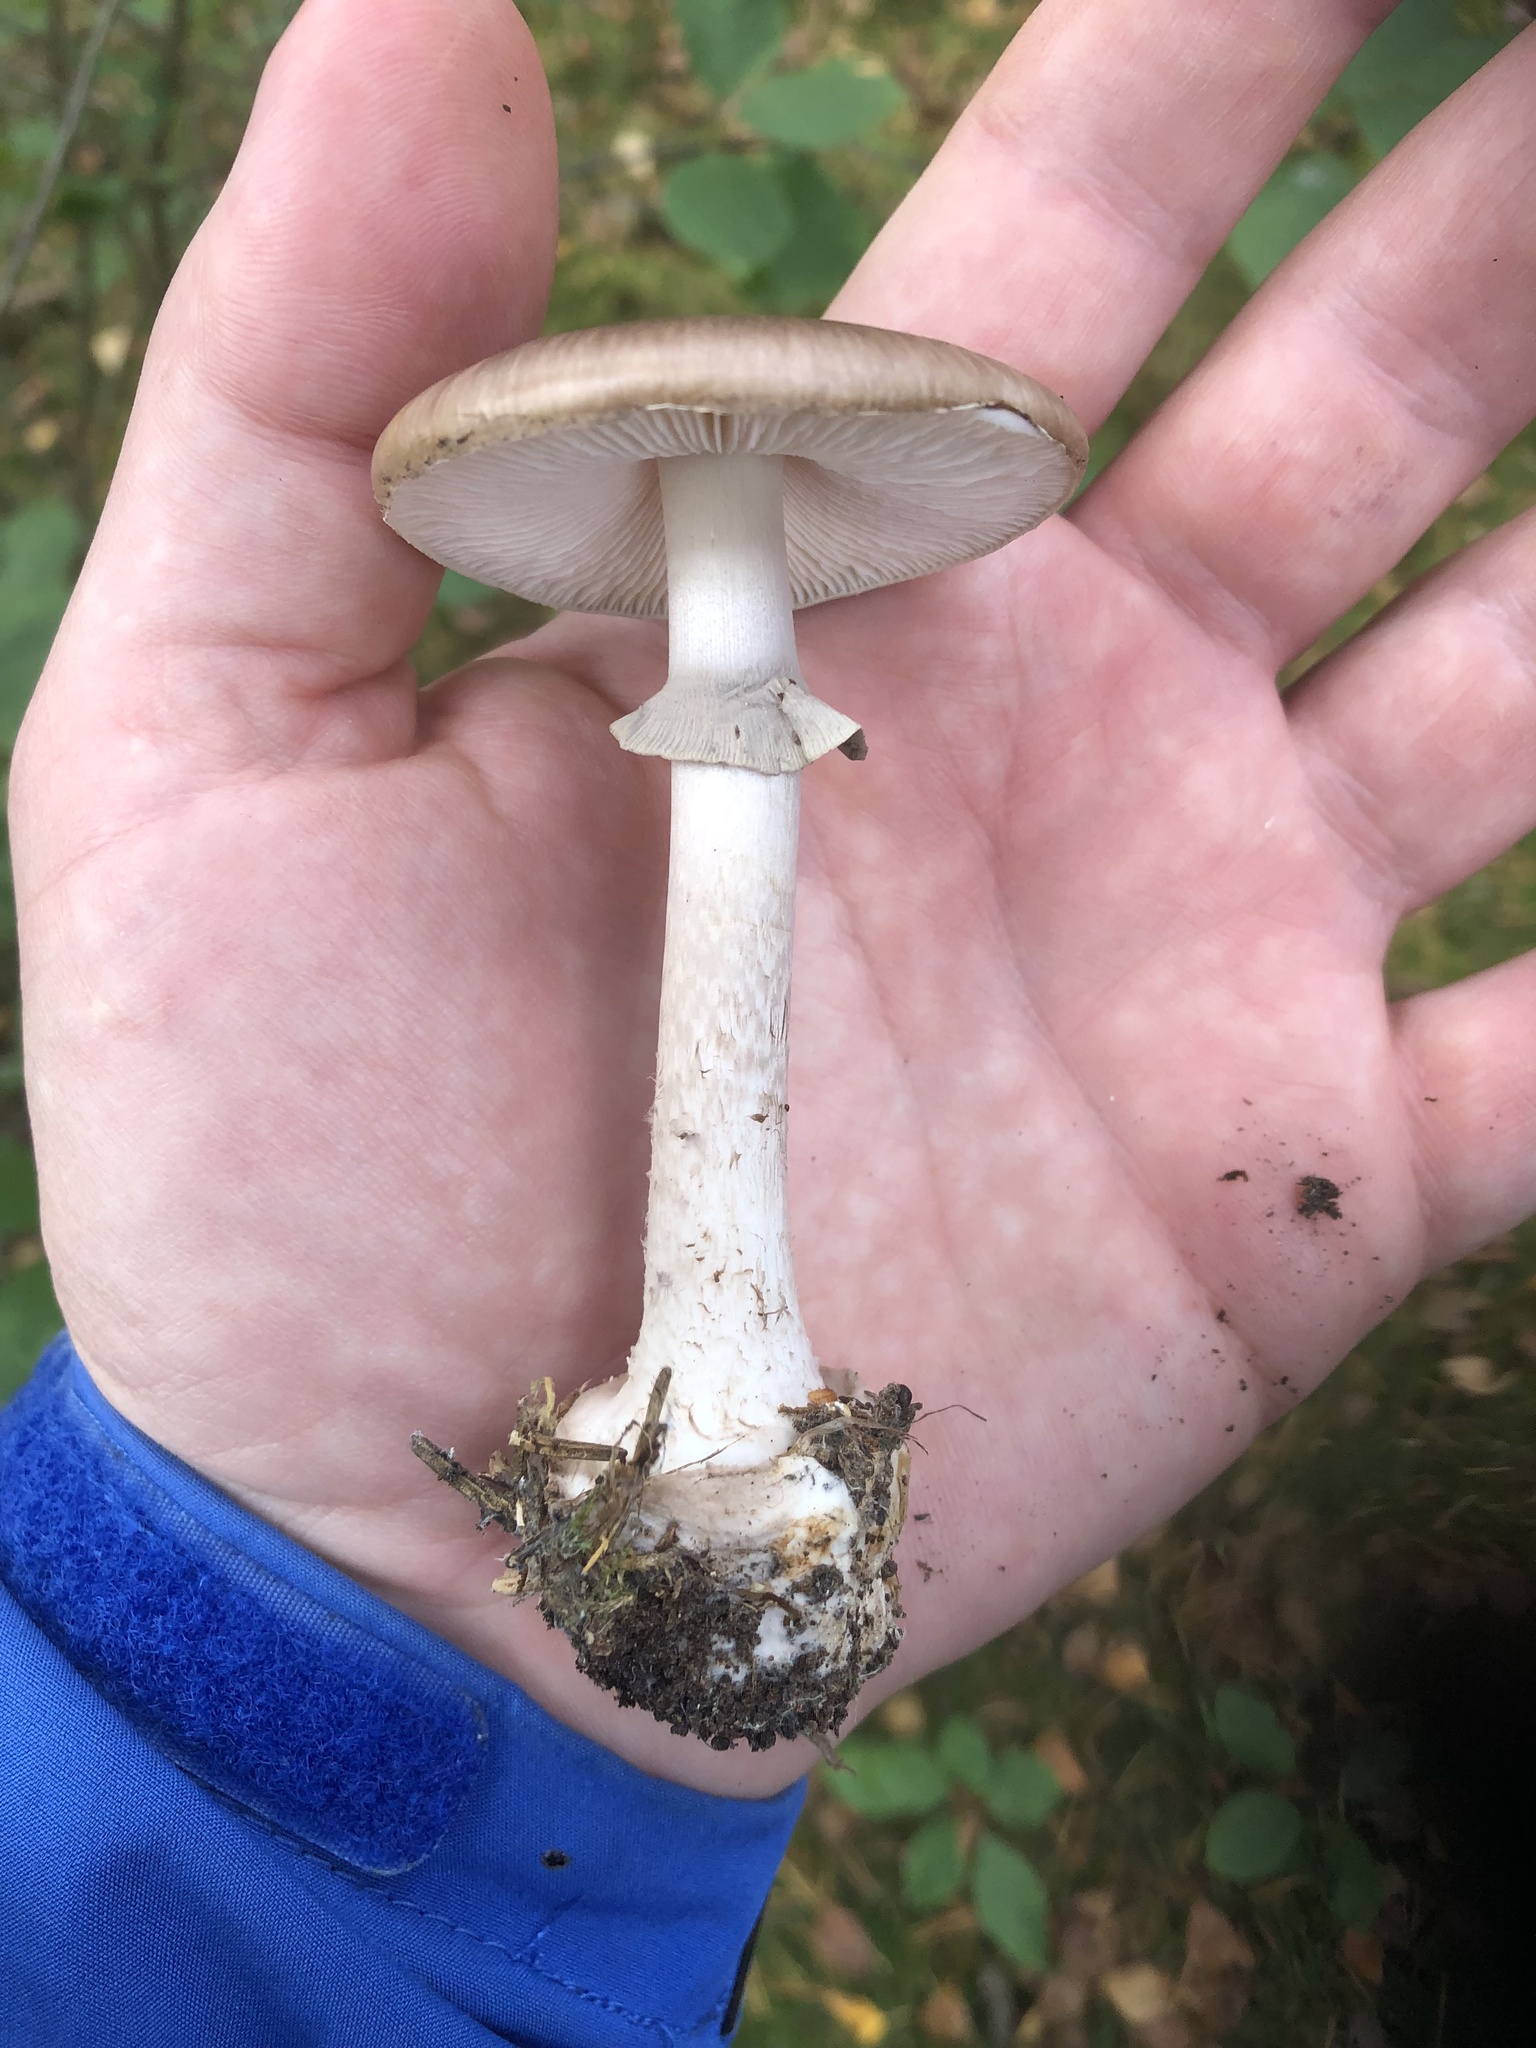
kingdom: Fungi
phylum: Basidiomycota
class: Agaricomycetes
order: Agaricales
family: Amanitaceae
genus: Amanita
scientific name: Amanita porphyria
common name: Grey veiled amanita
